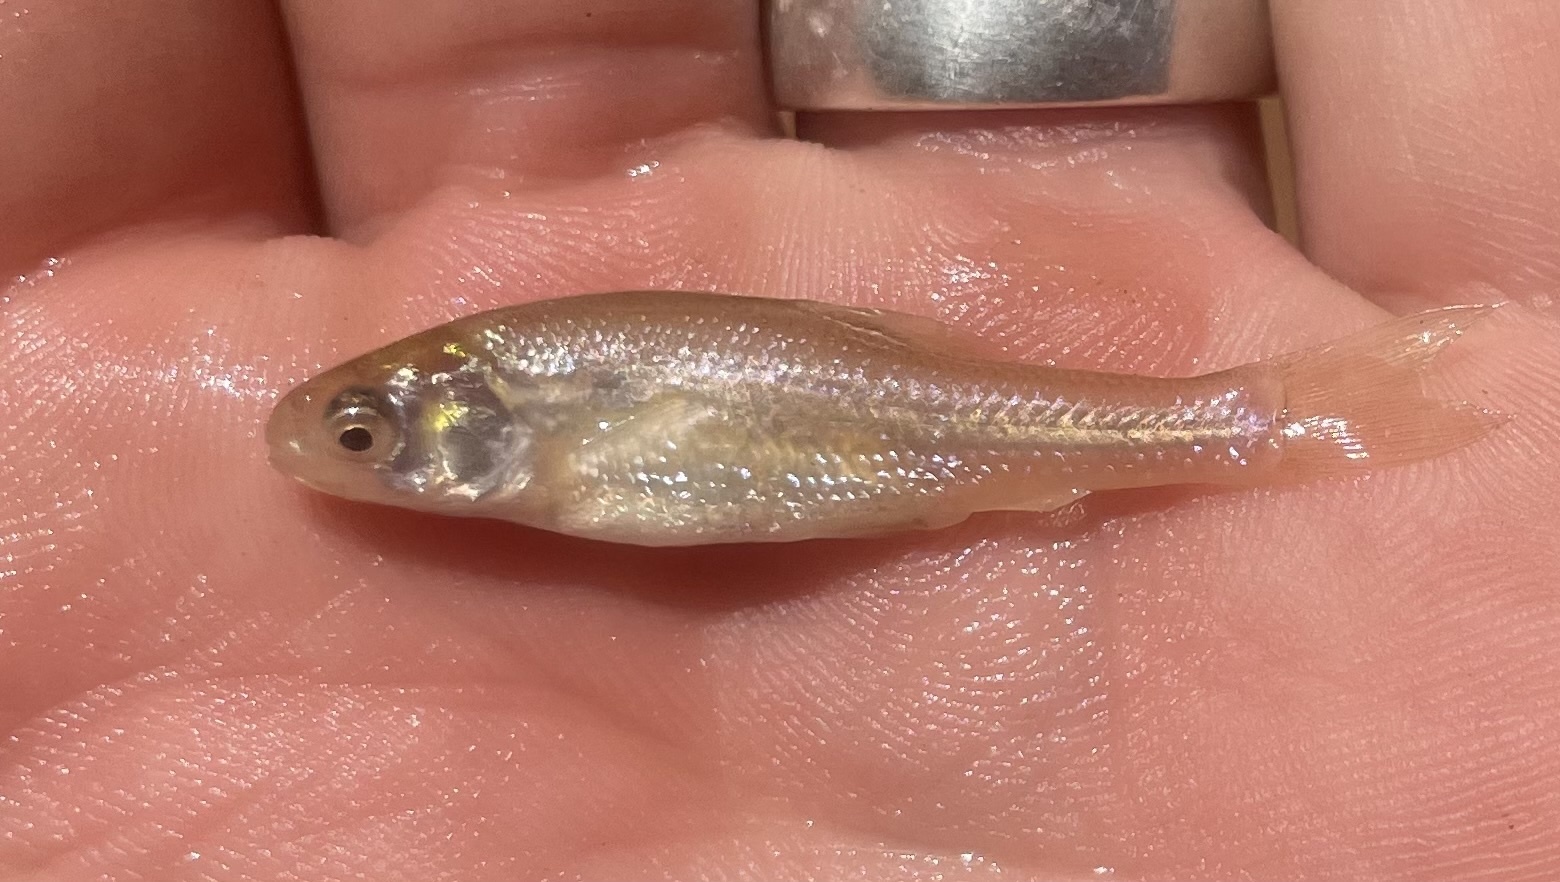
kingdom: Animalia
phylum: Chordata
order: Cypriniformes
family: Cyprinidae
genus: Pimephales
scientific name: Pimephales promelas
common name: Fathead minnow
